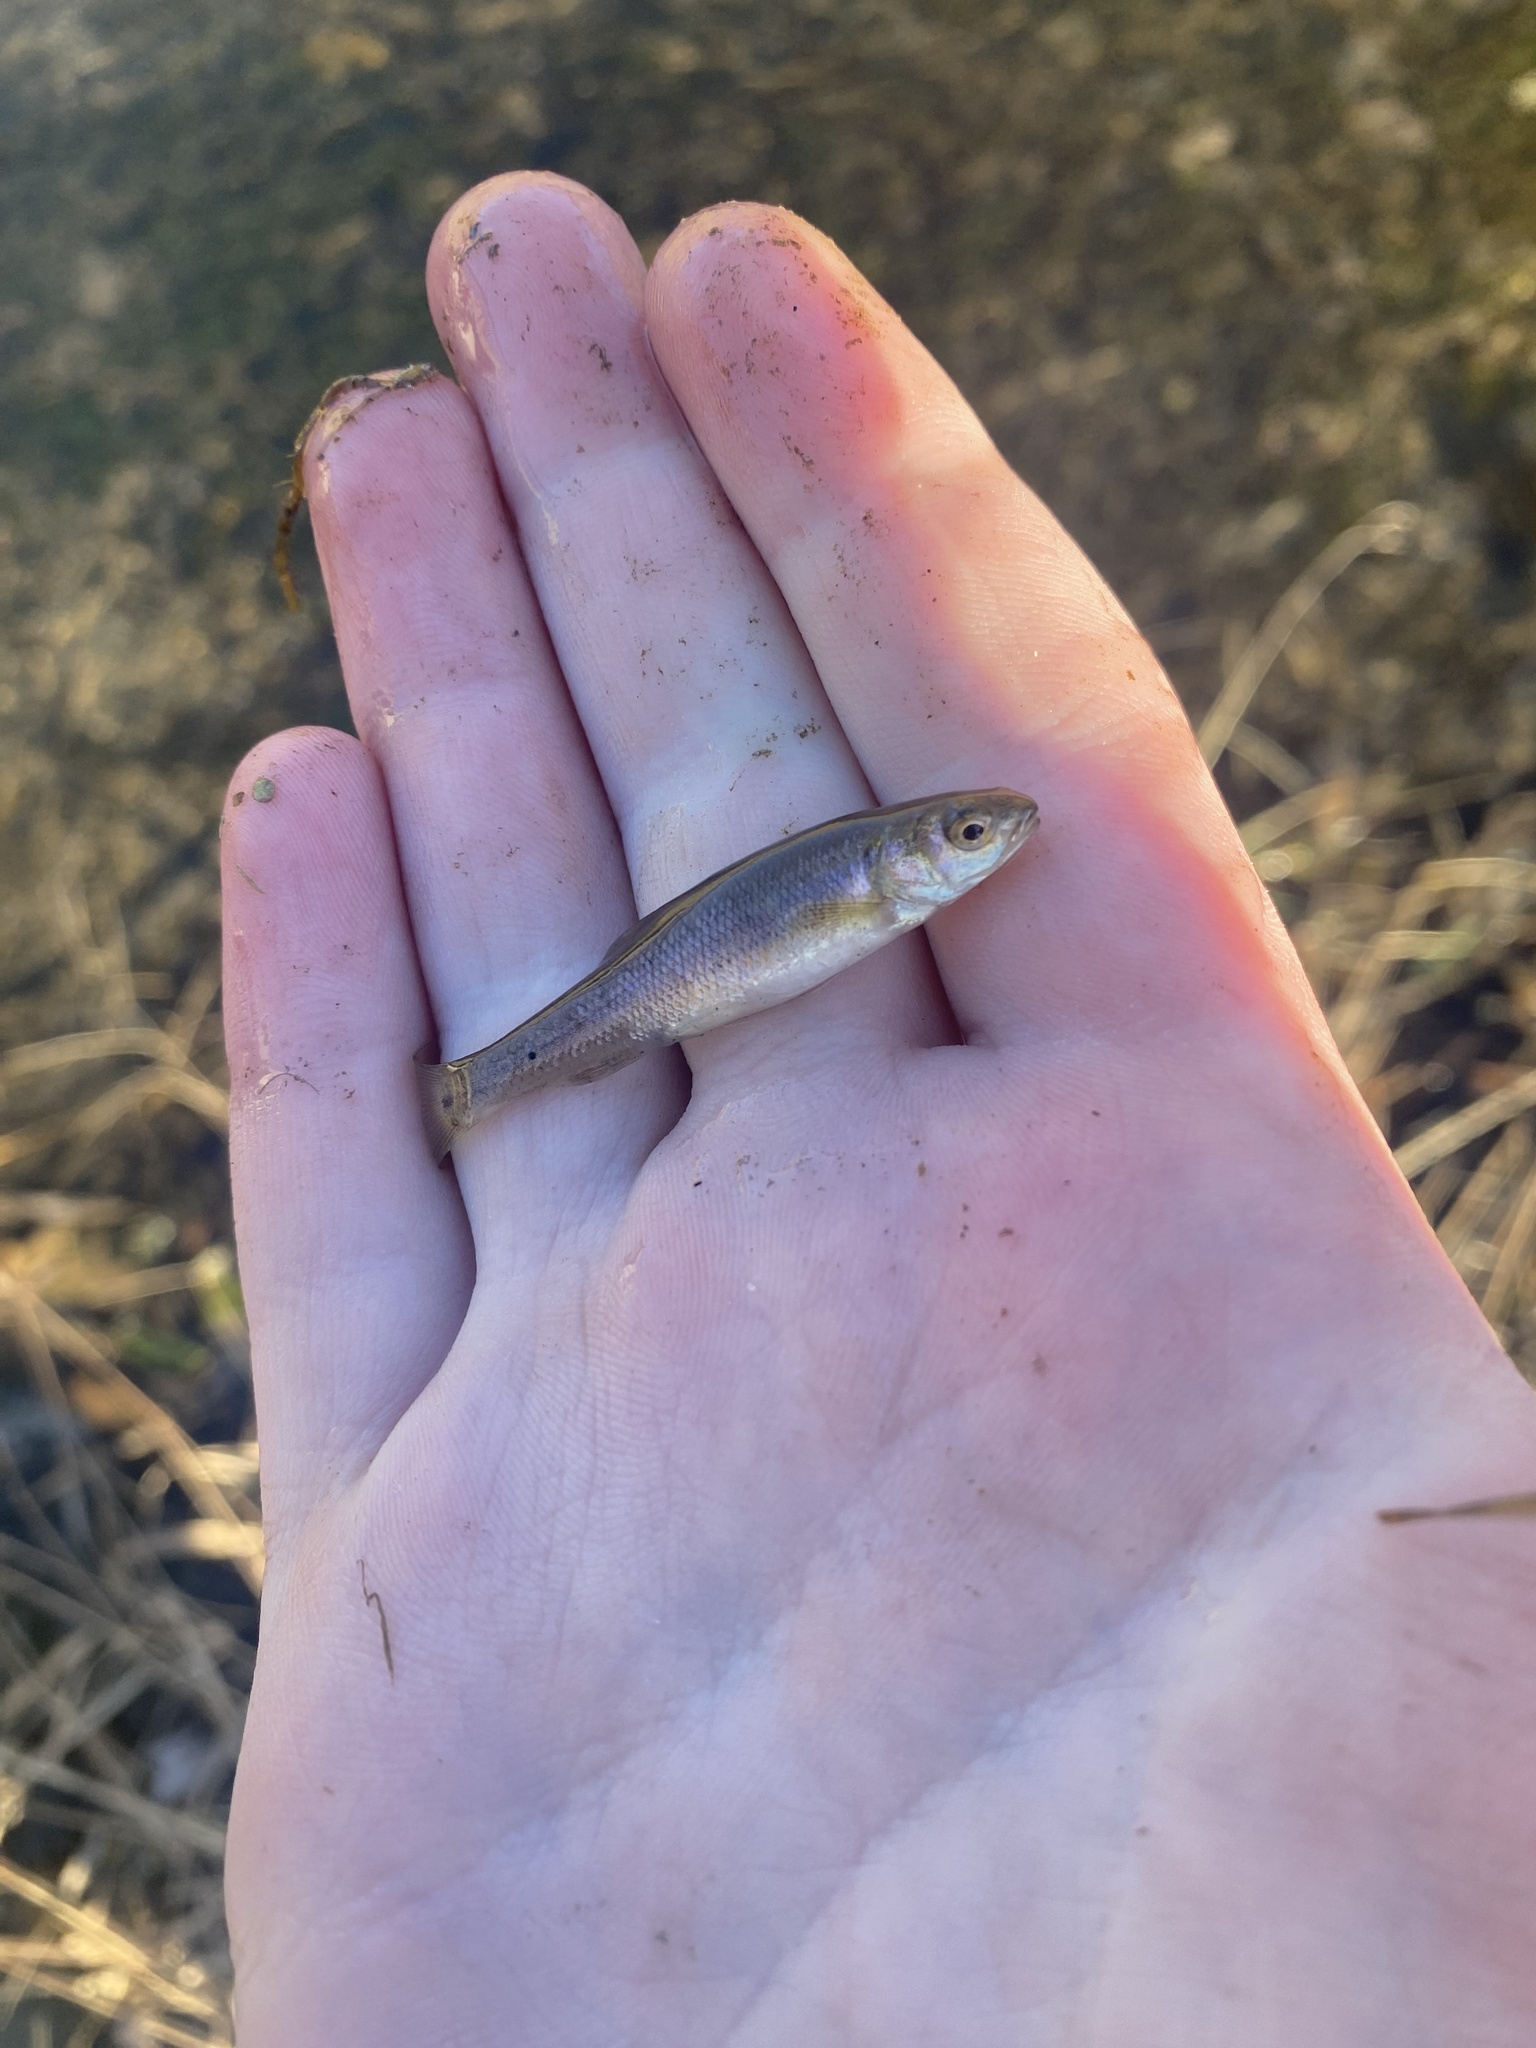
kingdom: Animalia
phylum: Chordata
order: Cypriniformes
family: Cyprinidae
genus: Semotilus
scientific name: Semotilus atromaculatus
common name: Creek chub
